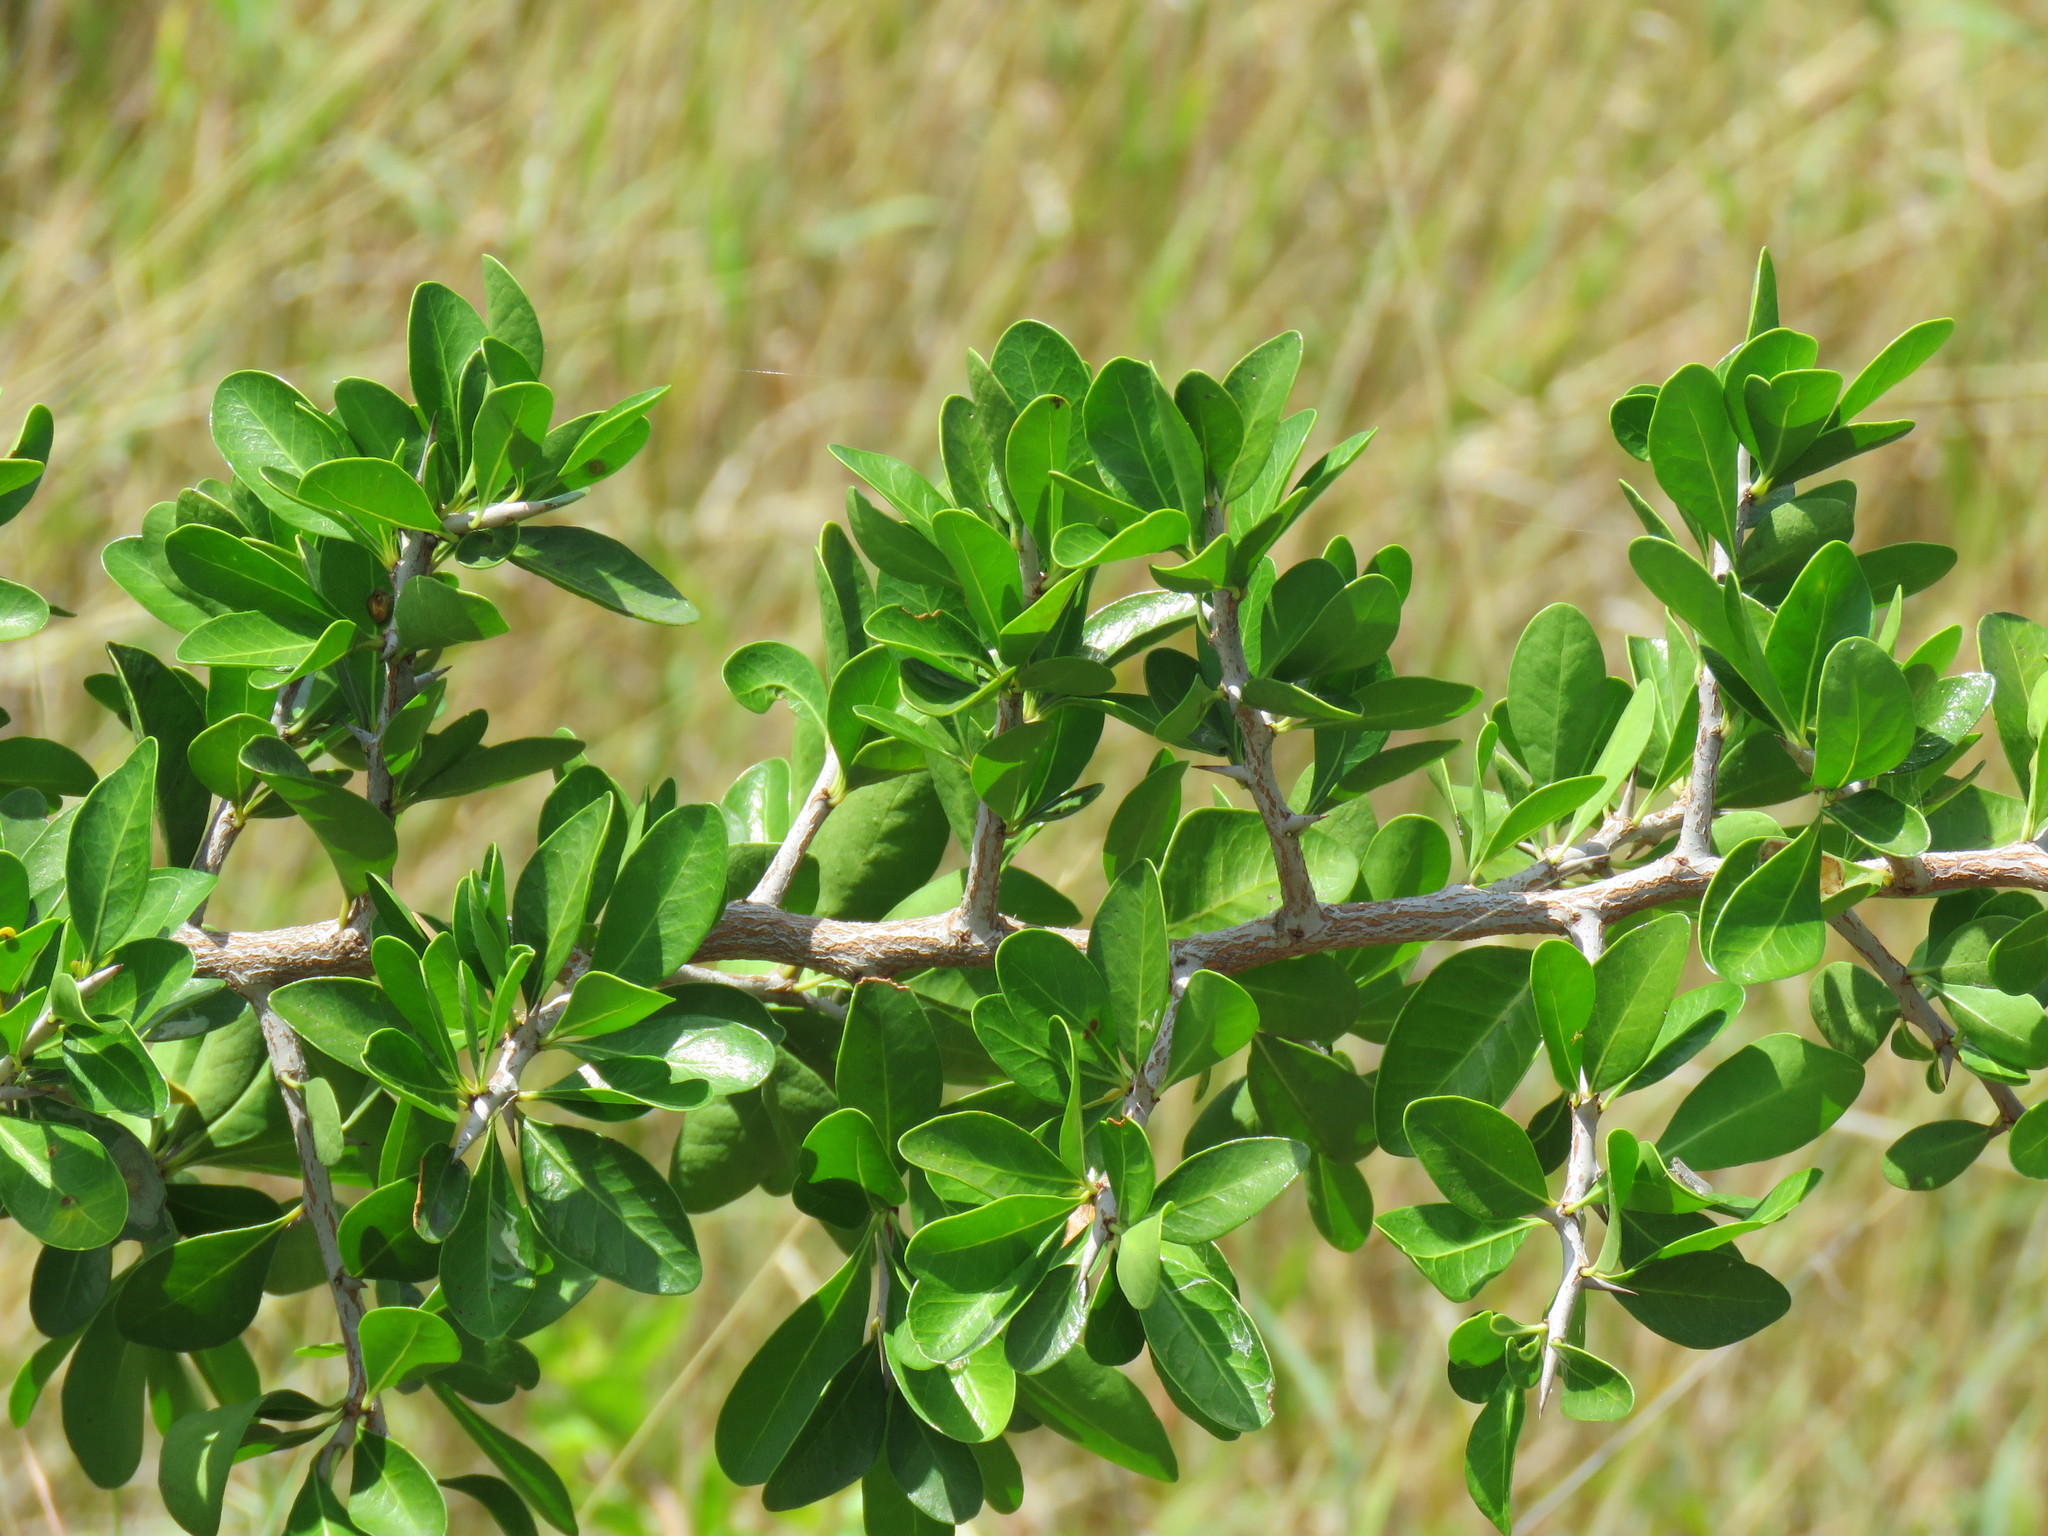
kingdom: Plantae
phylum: Tracheophyta
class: Magnoliopsida
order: Ericales
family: Sapotaceae
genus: Sideroxylon
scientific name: Sideroxylon celastrinum
